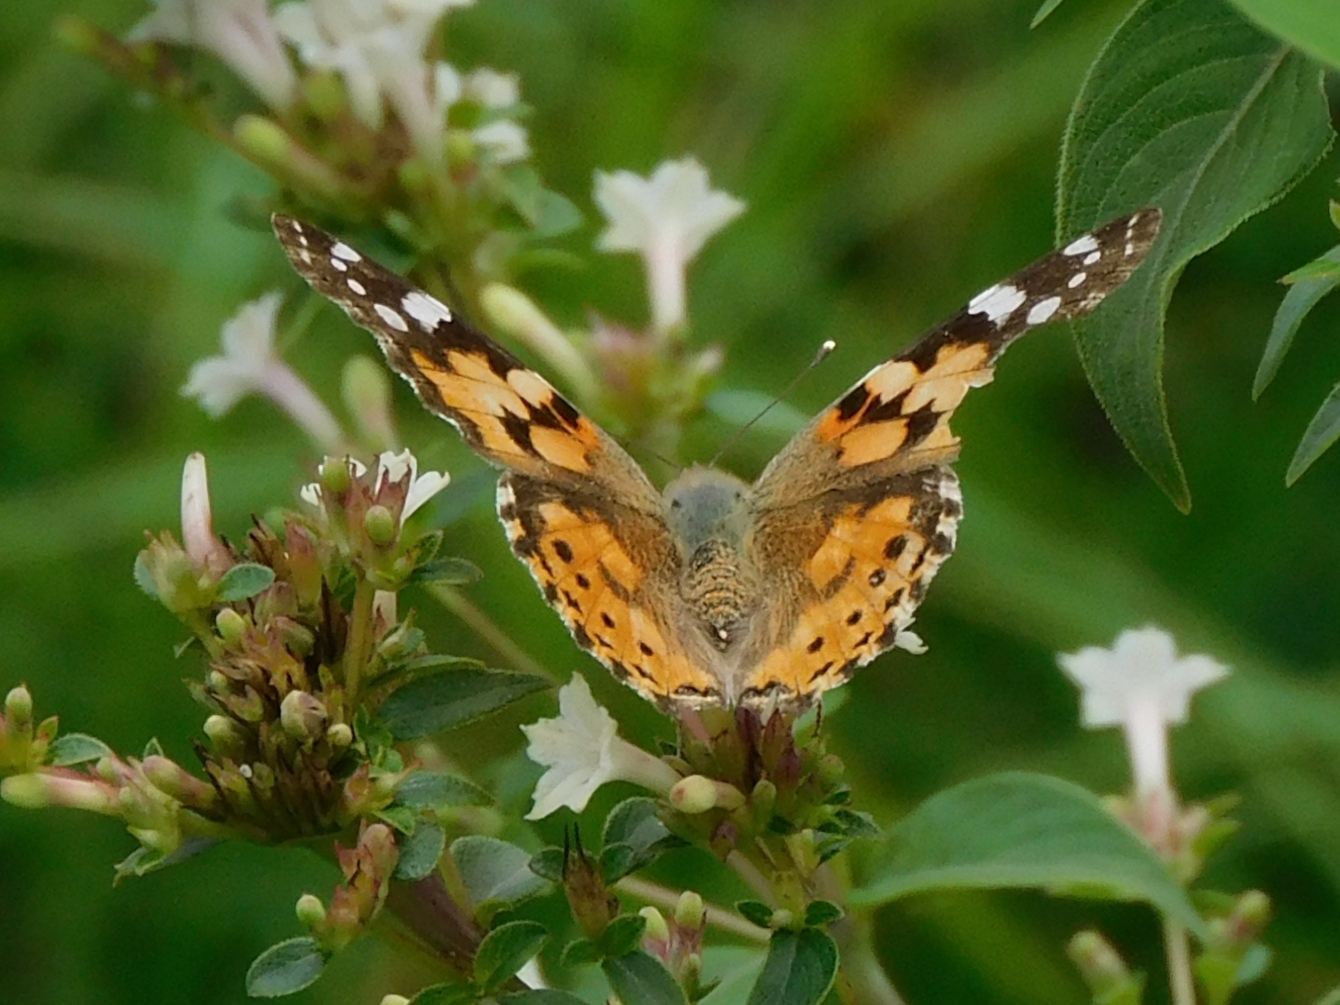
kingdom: Animalia
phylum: Arthropoda
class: Insecta
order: Lepidoptera
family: Nymphalidae
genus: Vanessa
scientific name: Vanessa cardui
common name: Painted lady
